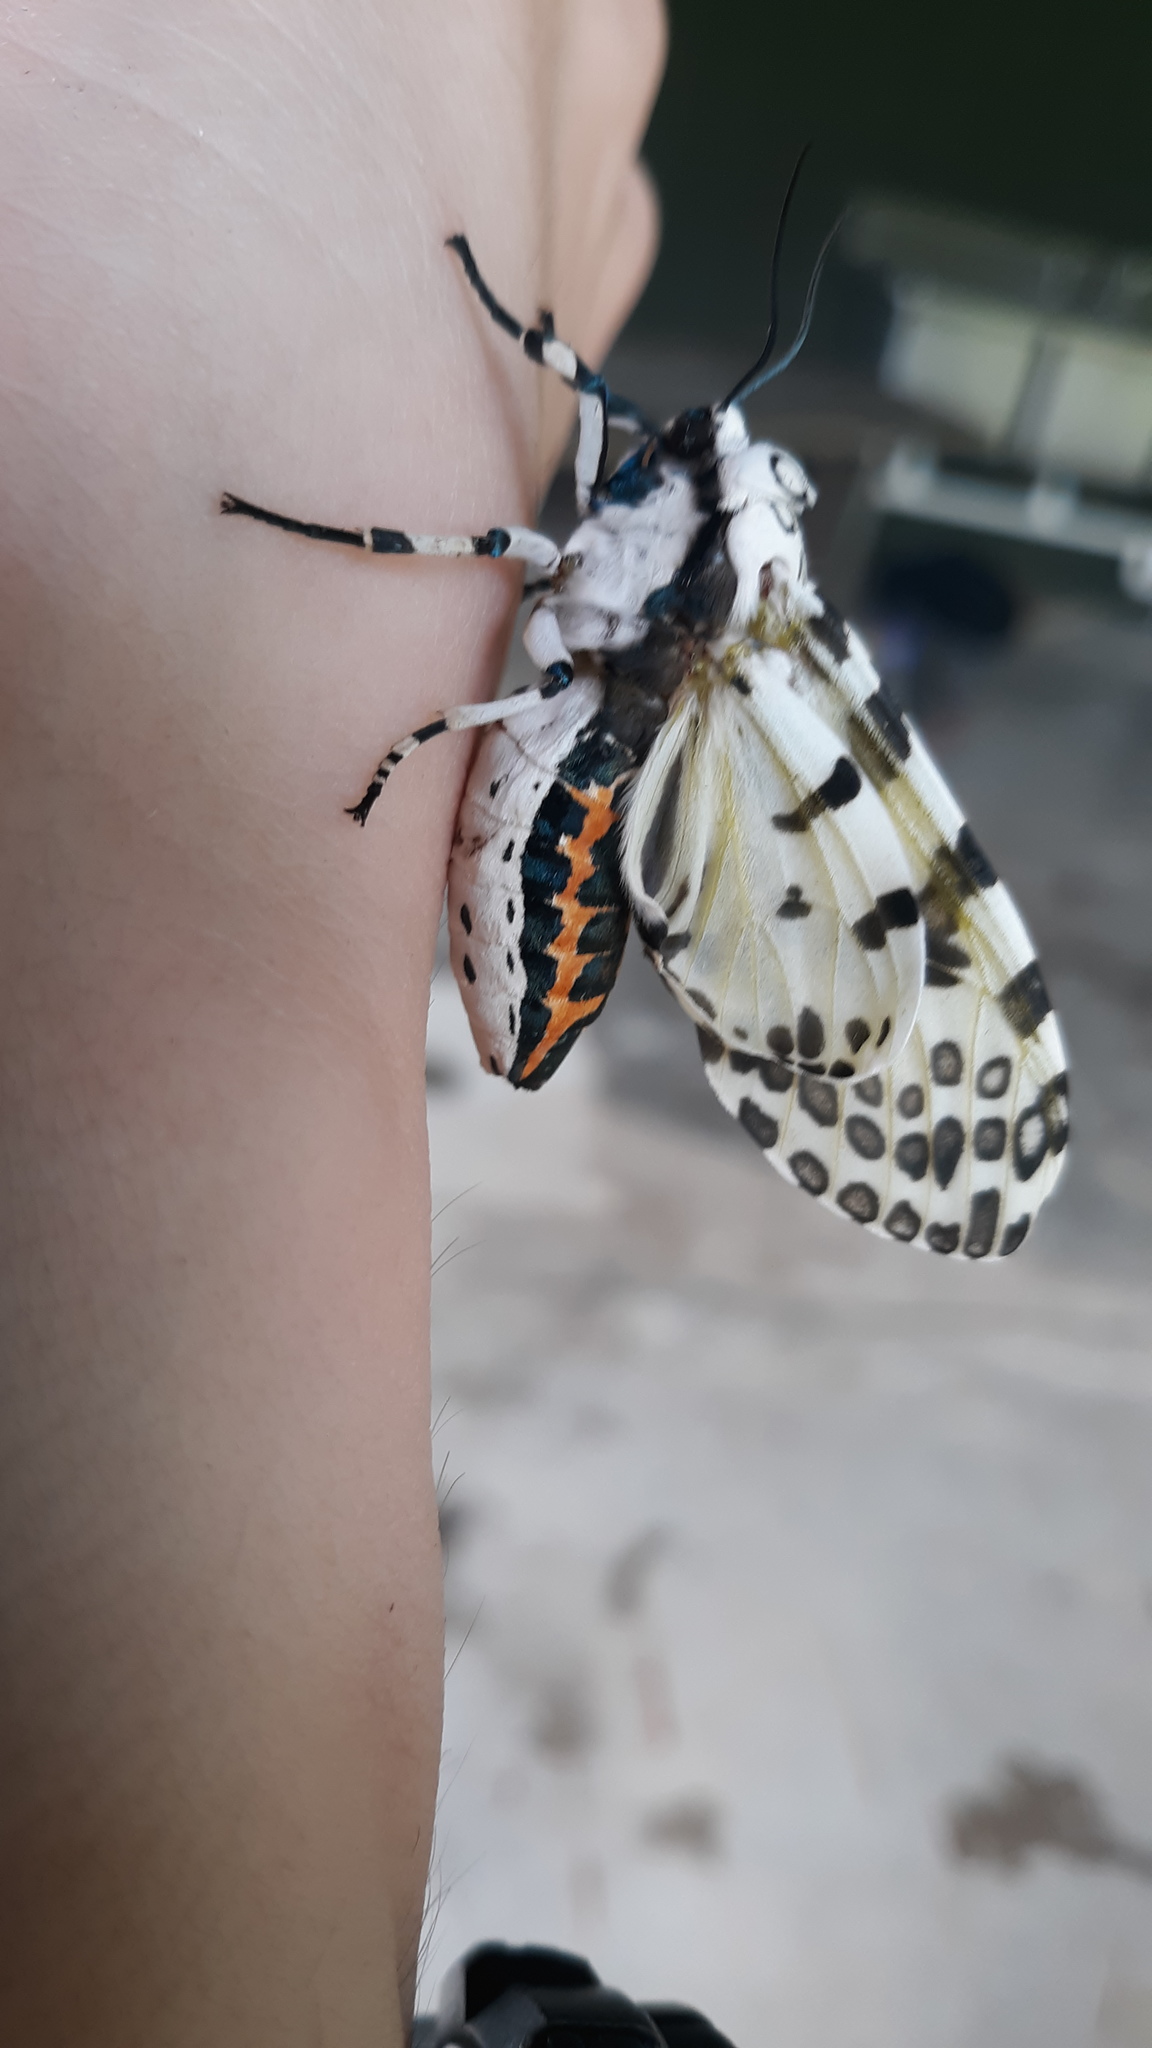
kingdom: Animalia
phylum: Arthropoda
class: Insecta
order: Lepidoptera
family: Erebidae
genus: Hypercompe
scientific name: Hypercompe scribonia
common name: Giant leopard moth
